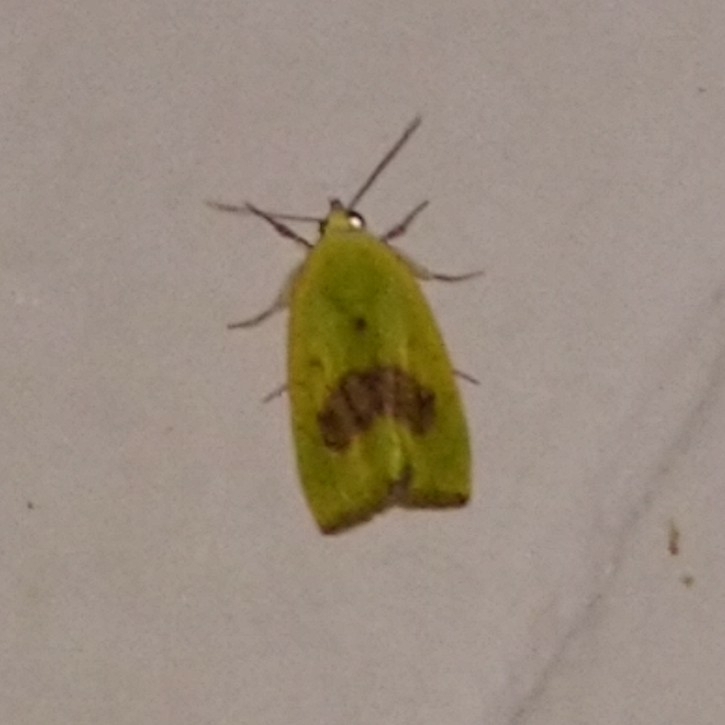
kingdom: Animalia
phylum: Arthropoda
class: Insecta
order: Lepidoptera
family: Nolidae
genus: Earias
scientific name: Earias biplaga
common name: Spiny bollworm
